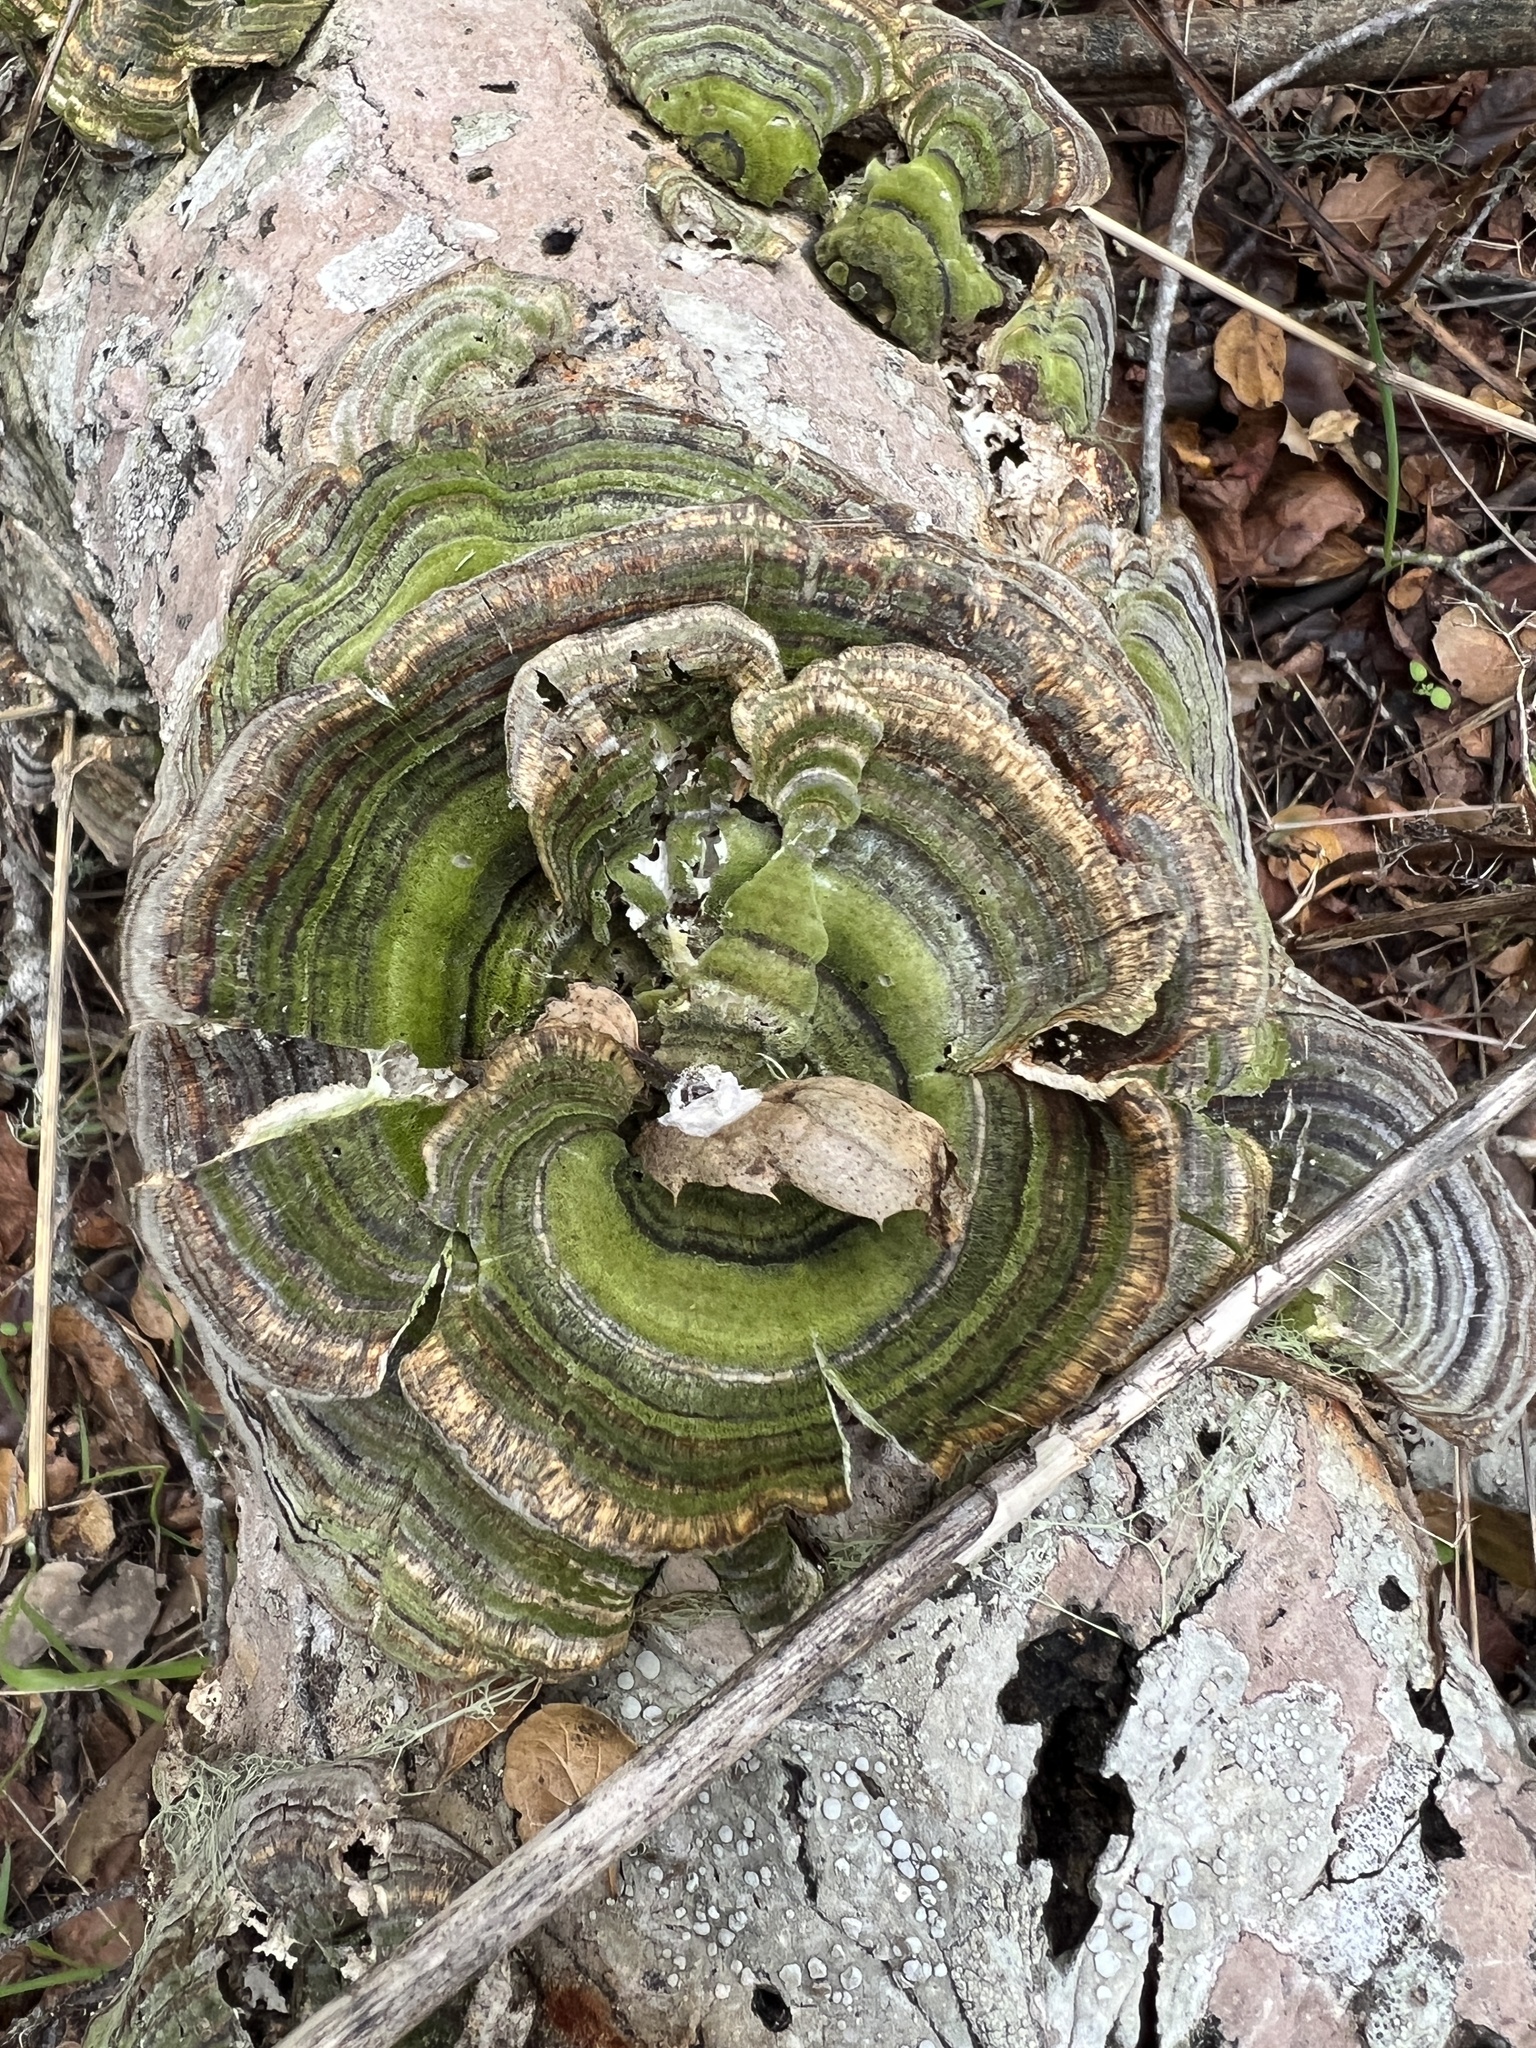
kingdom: Fungi
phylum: Basidiomycota
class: Agaricomycetes
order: Polyporales
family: Polyporaceae
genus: Trametes
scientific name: Trametes versicolor
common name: Turkeytail
